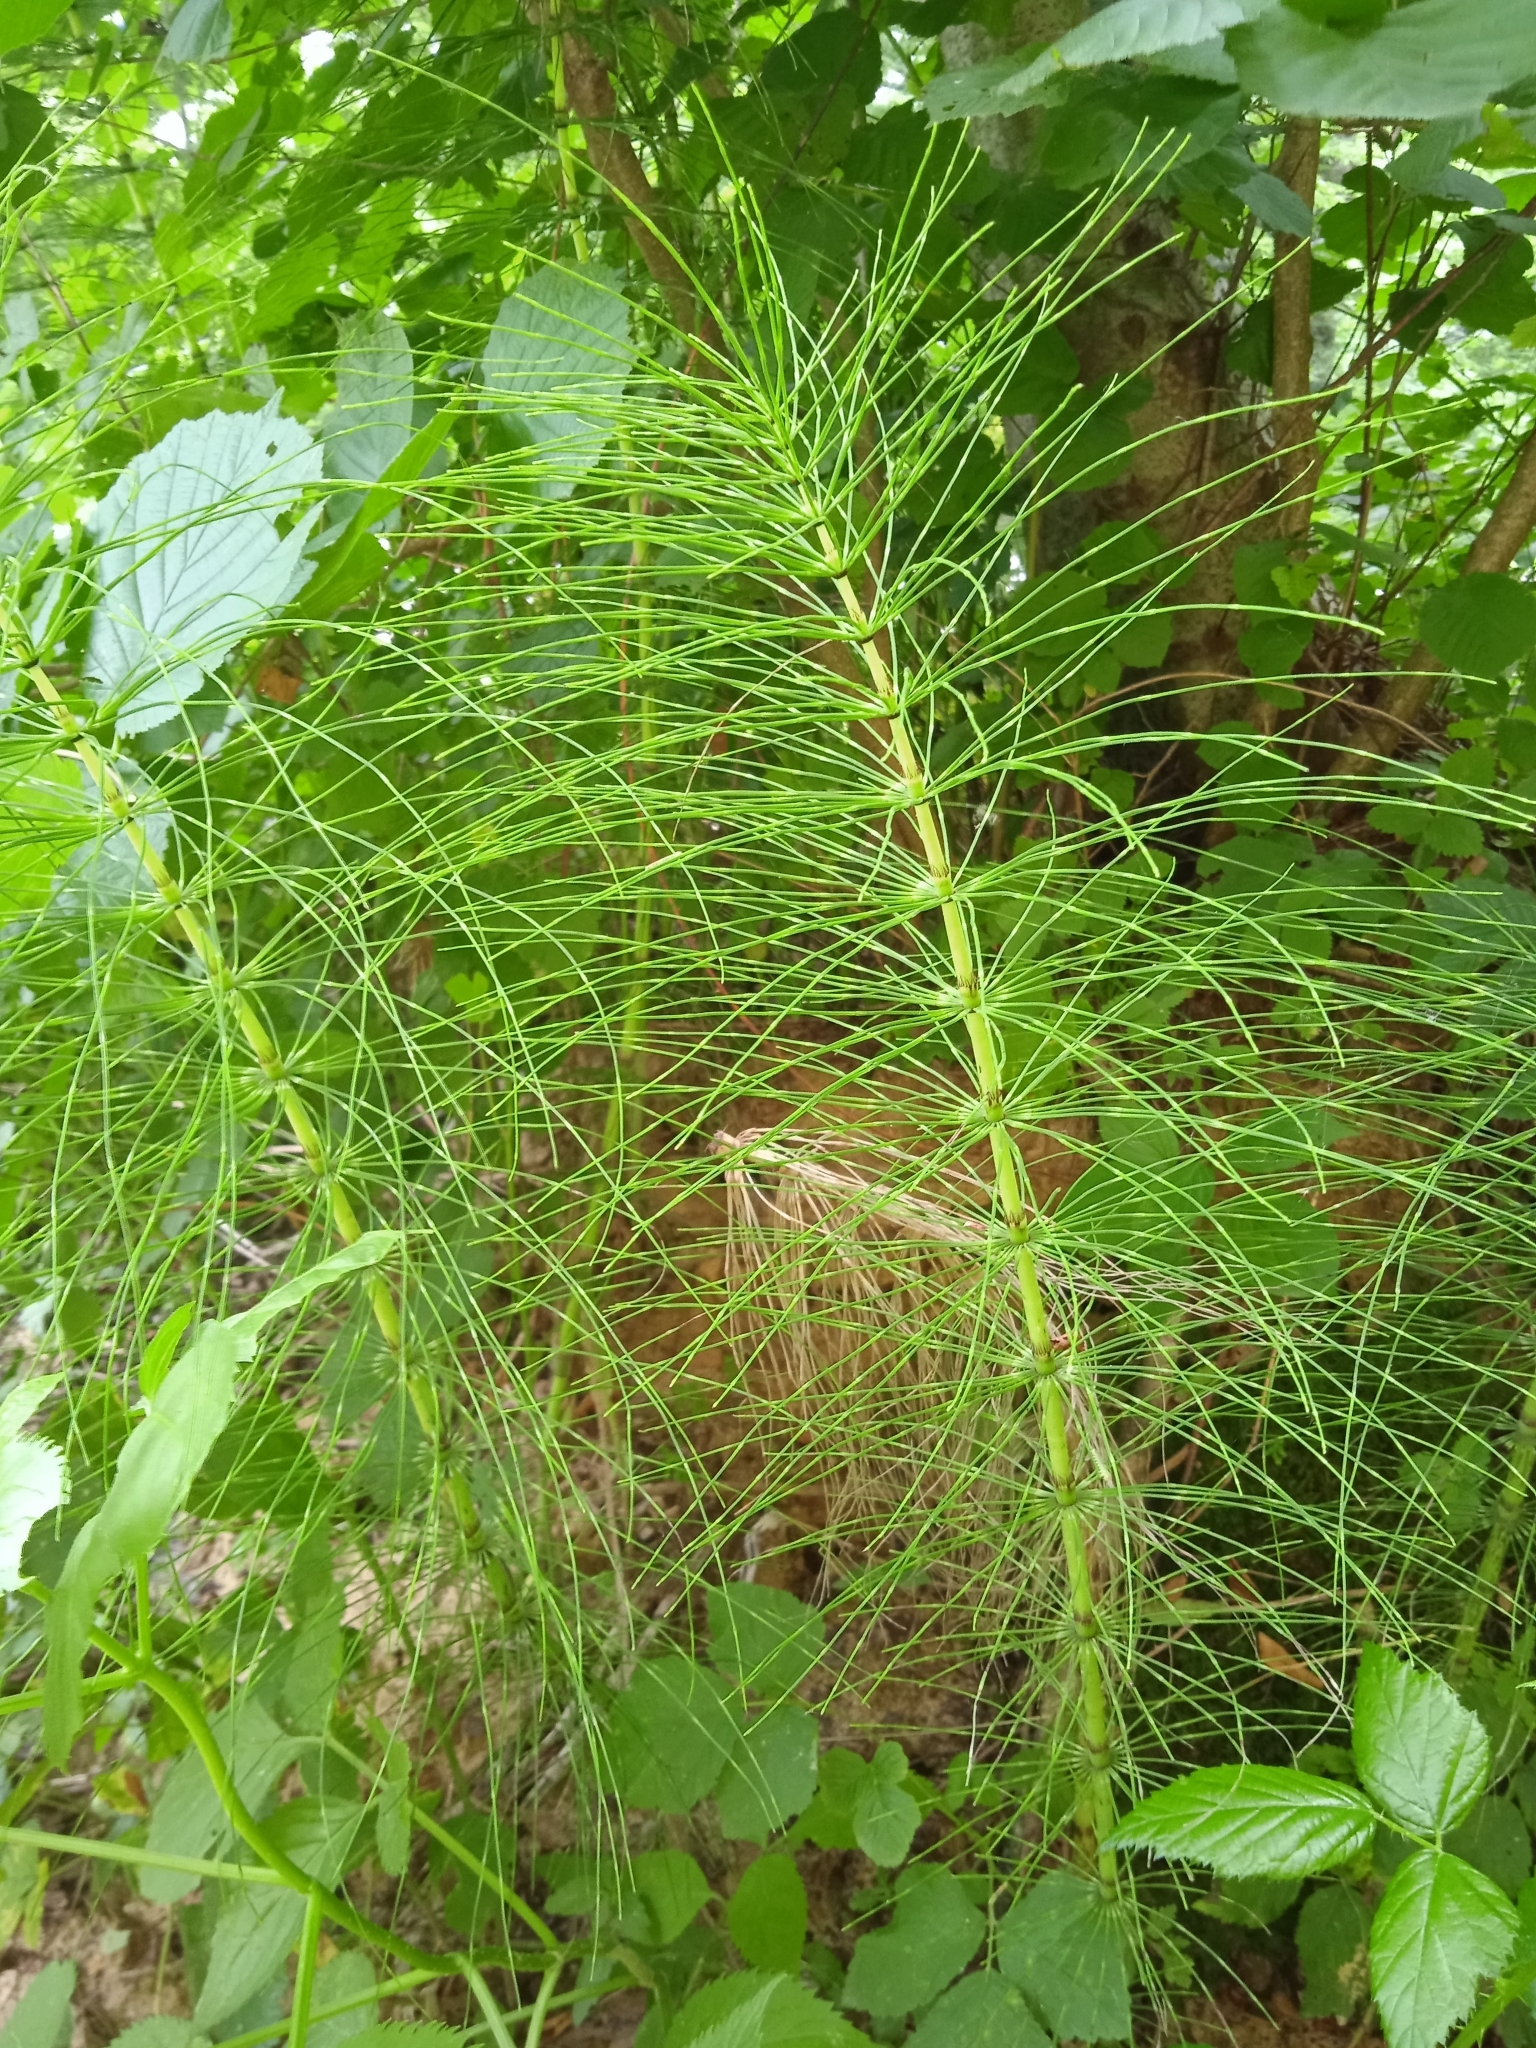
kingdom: Plantae
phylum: Tracheophyta
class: Polypodiopsida
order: Equisetales
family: Equisetaceae
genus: Equisetum
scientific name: Equisetum telmateia
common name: Great horsetail
